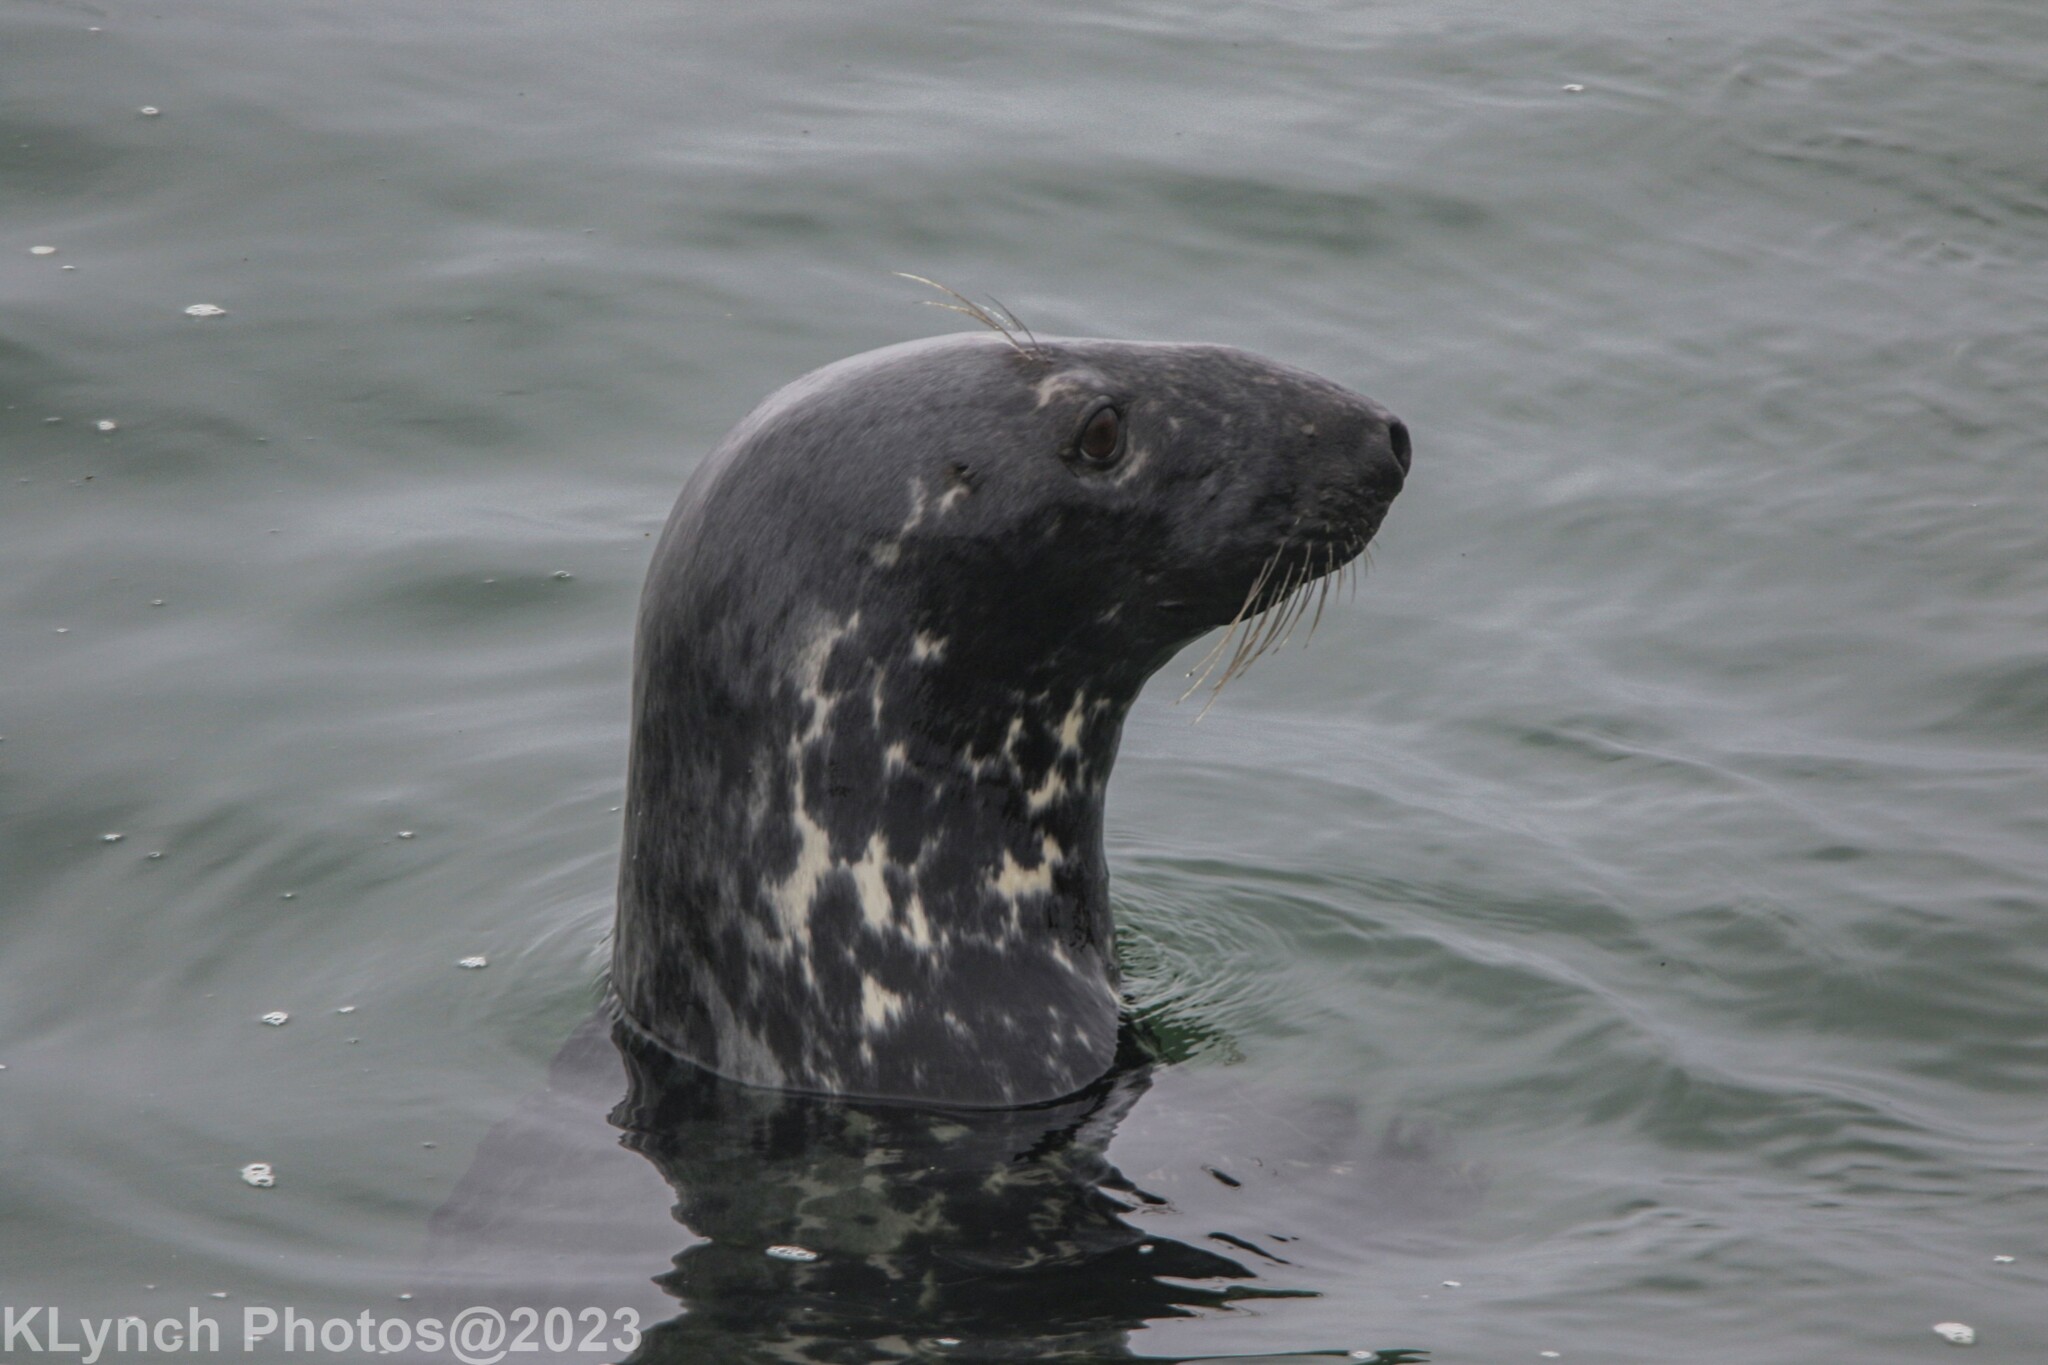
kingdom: Animalia
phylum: Chordata
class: Mammalia
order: Carnivora
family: Phocidae
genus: Halichoerus
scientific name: Halichoerus grypus
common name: Grey seal
